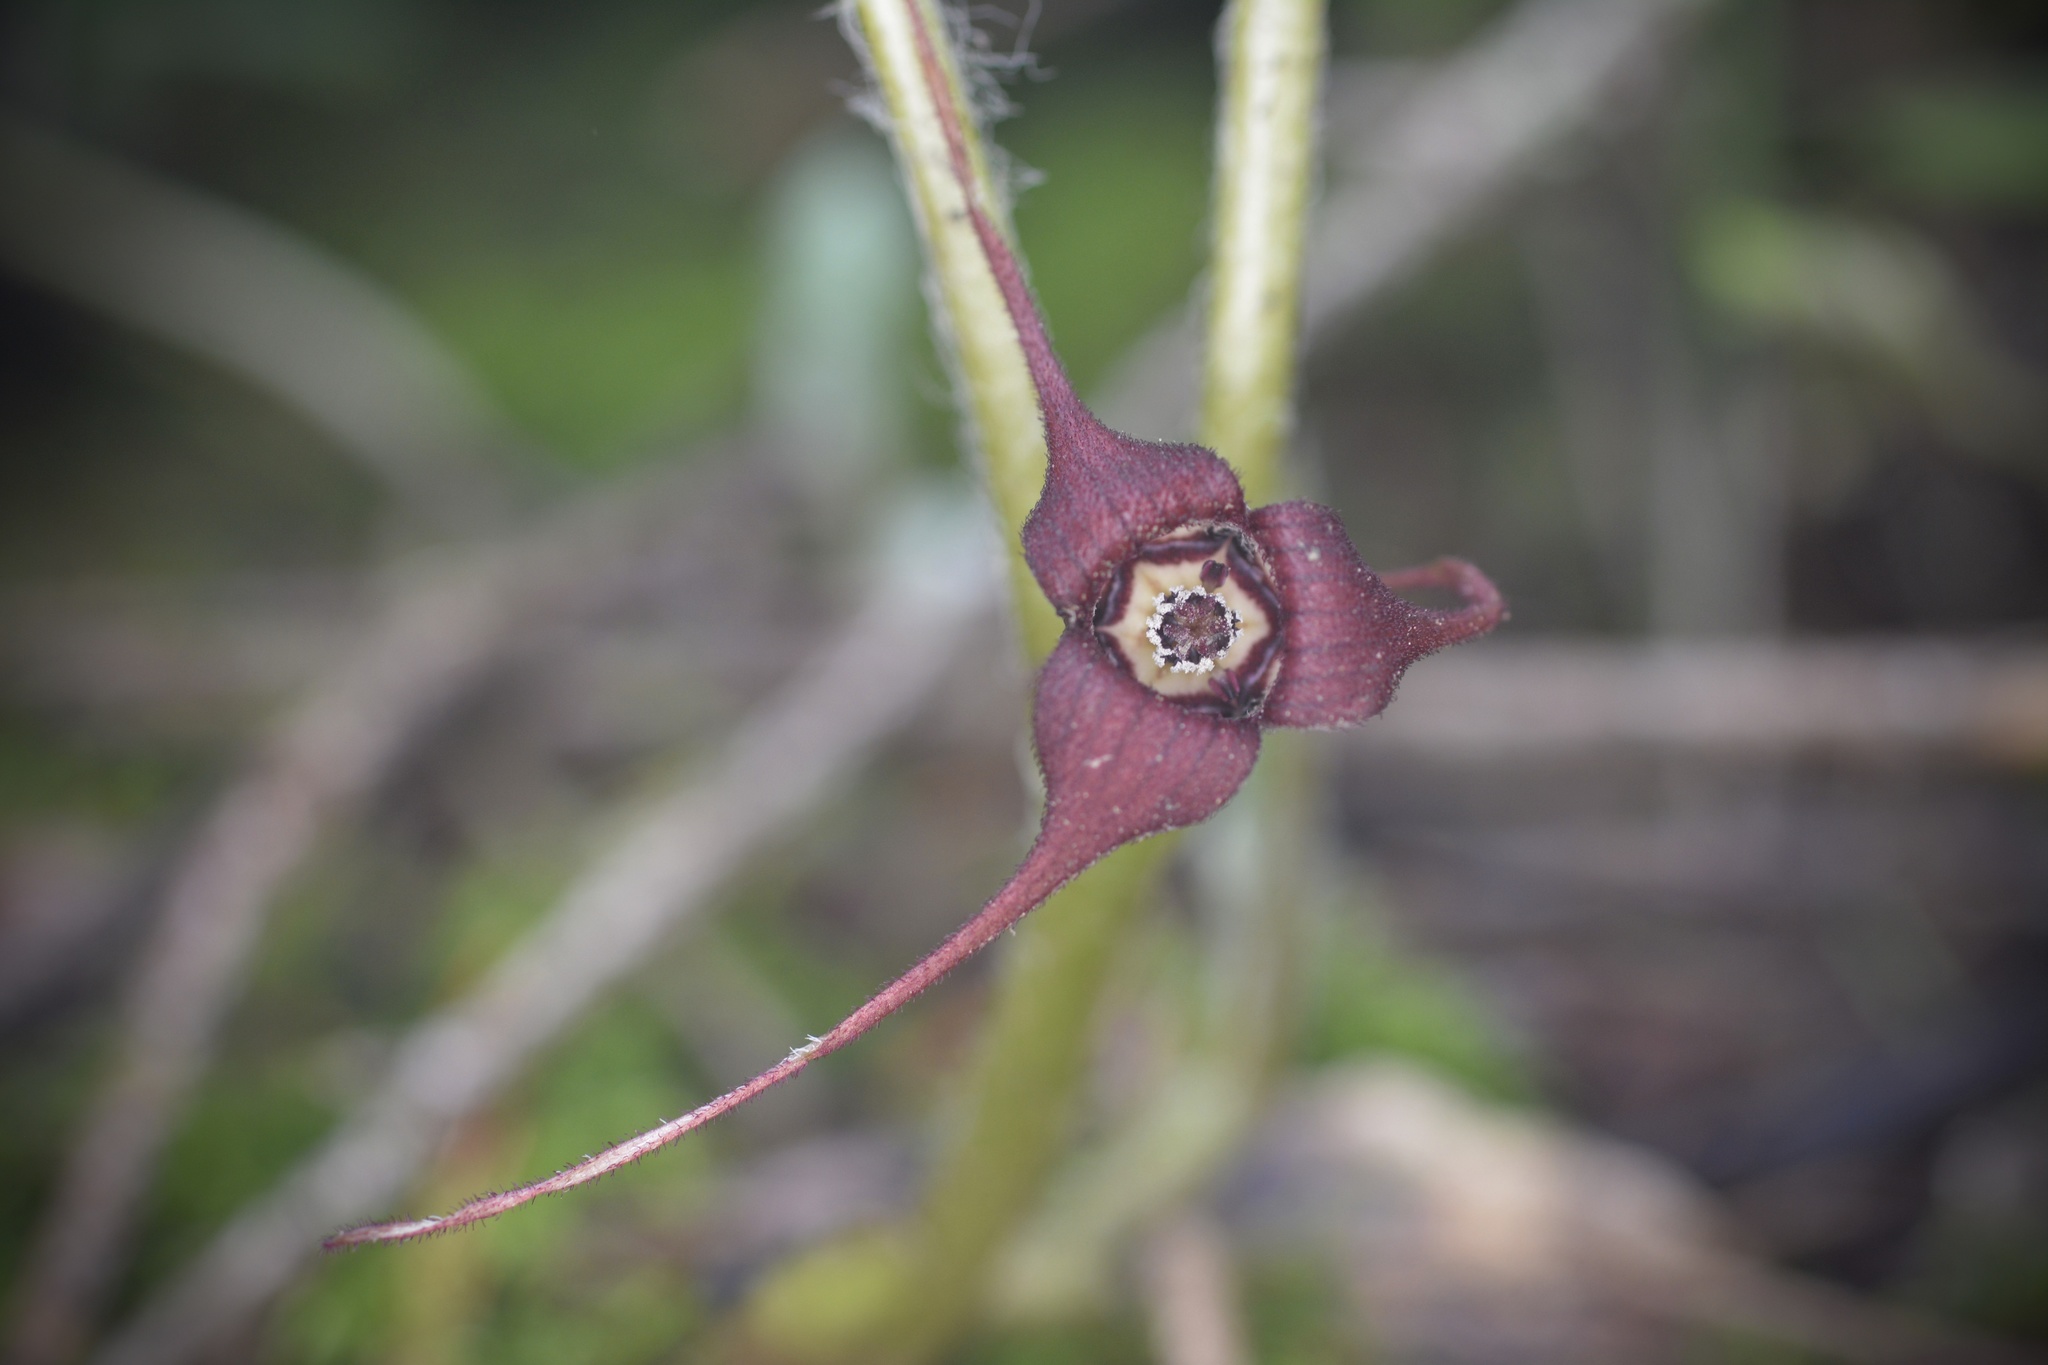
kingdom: Plantae
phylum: Tracheophyta
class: Magnoliopsida
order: Piperales
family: Aristolochiaceae
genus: Asarum
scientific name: Asarum caudatum
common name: Wild ginger
